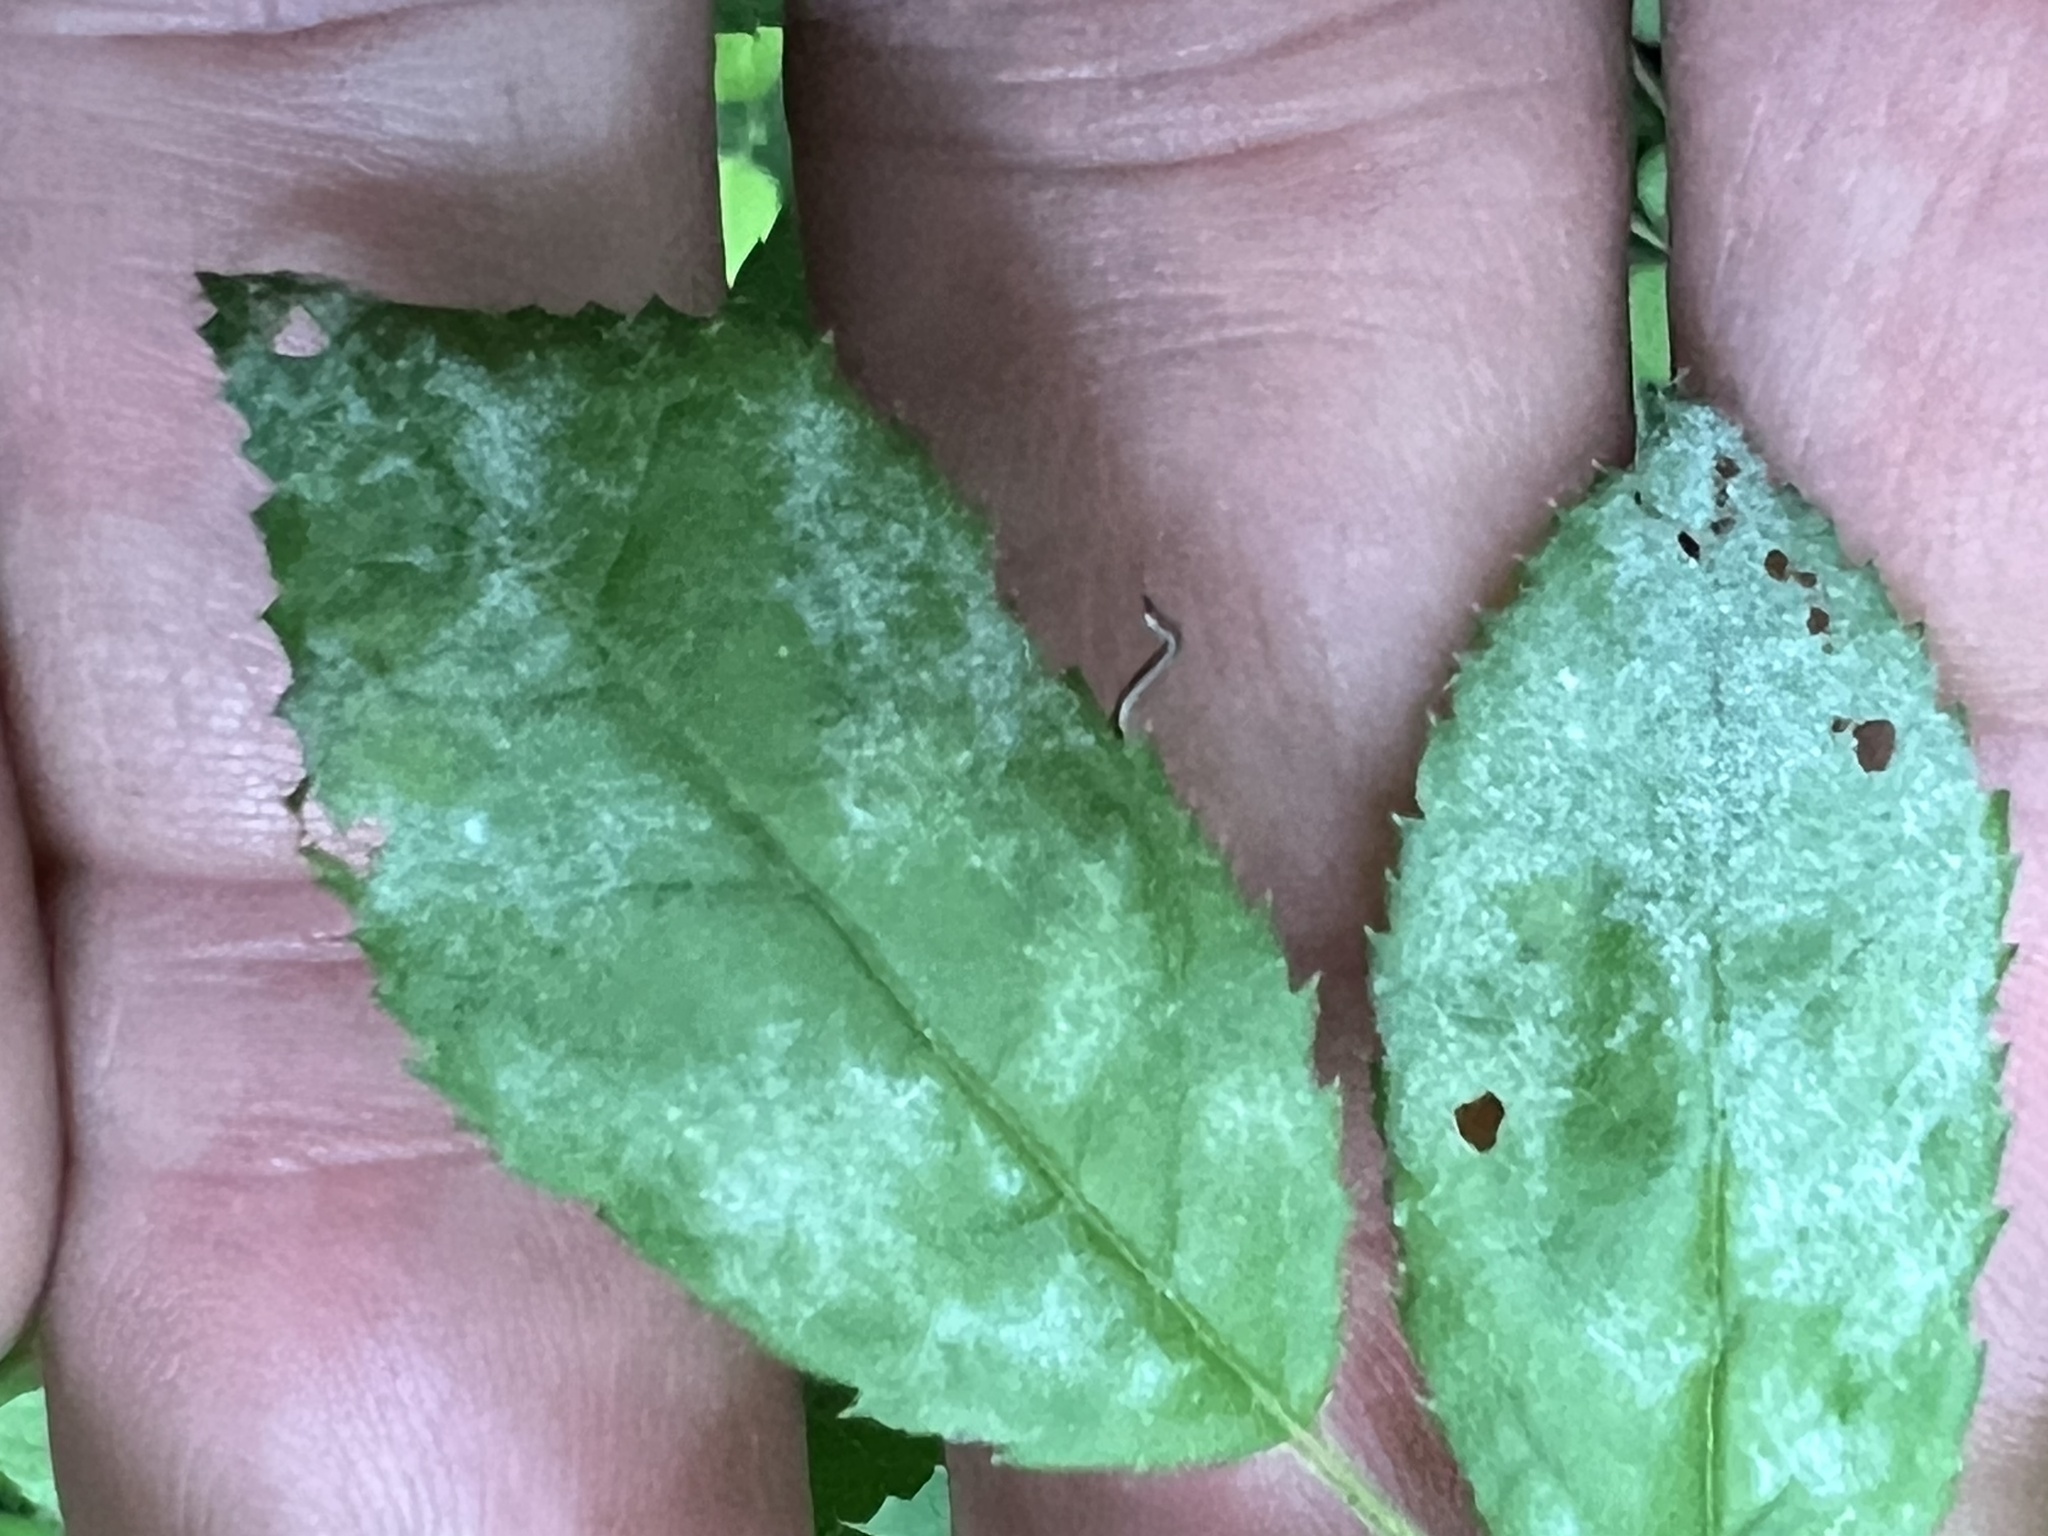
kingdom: Fungi
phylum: Ascomycota
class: Leotiomycetes
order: Helotiales
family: Erysiphaceae
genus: Podosphaera
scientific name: Podosphaera pannosa
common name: Rose mildew
